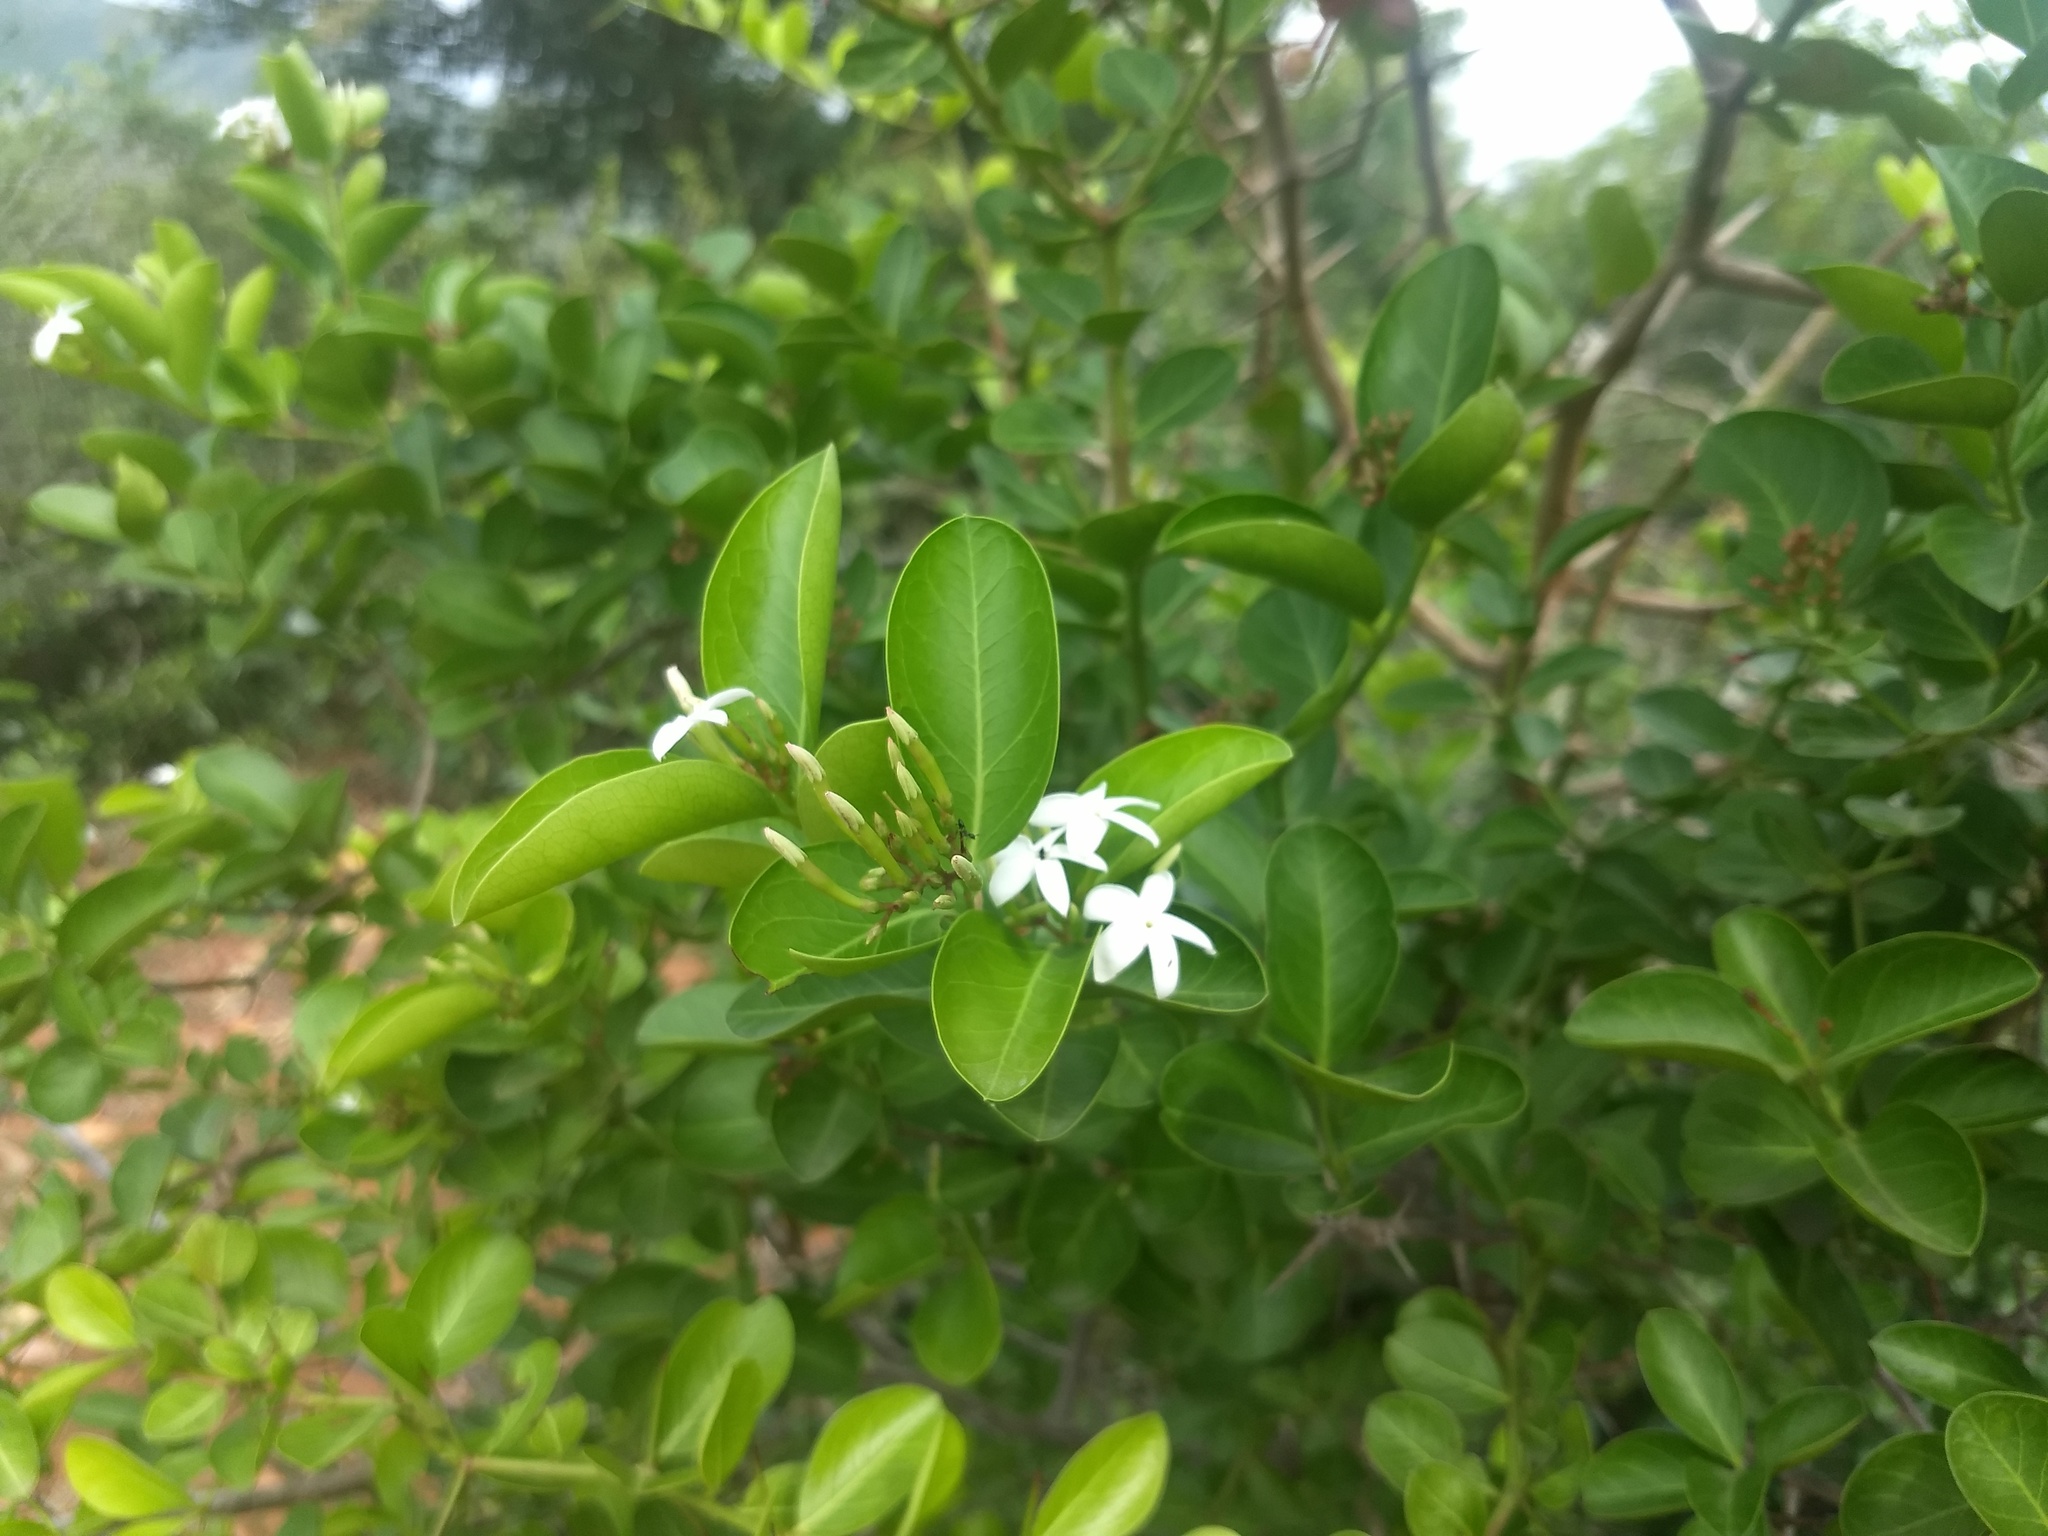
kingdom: Plantae
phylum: Tracheophyta
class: Magnoliopsida
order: Gentianales
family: Apocynaceae
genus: Carissa
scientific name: Carissa carandas
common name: Karanda
